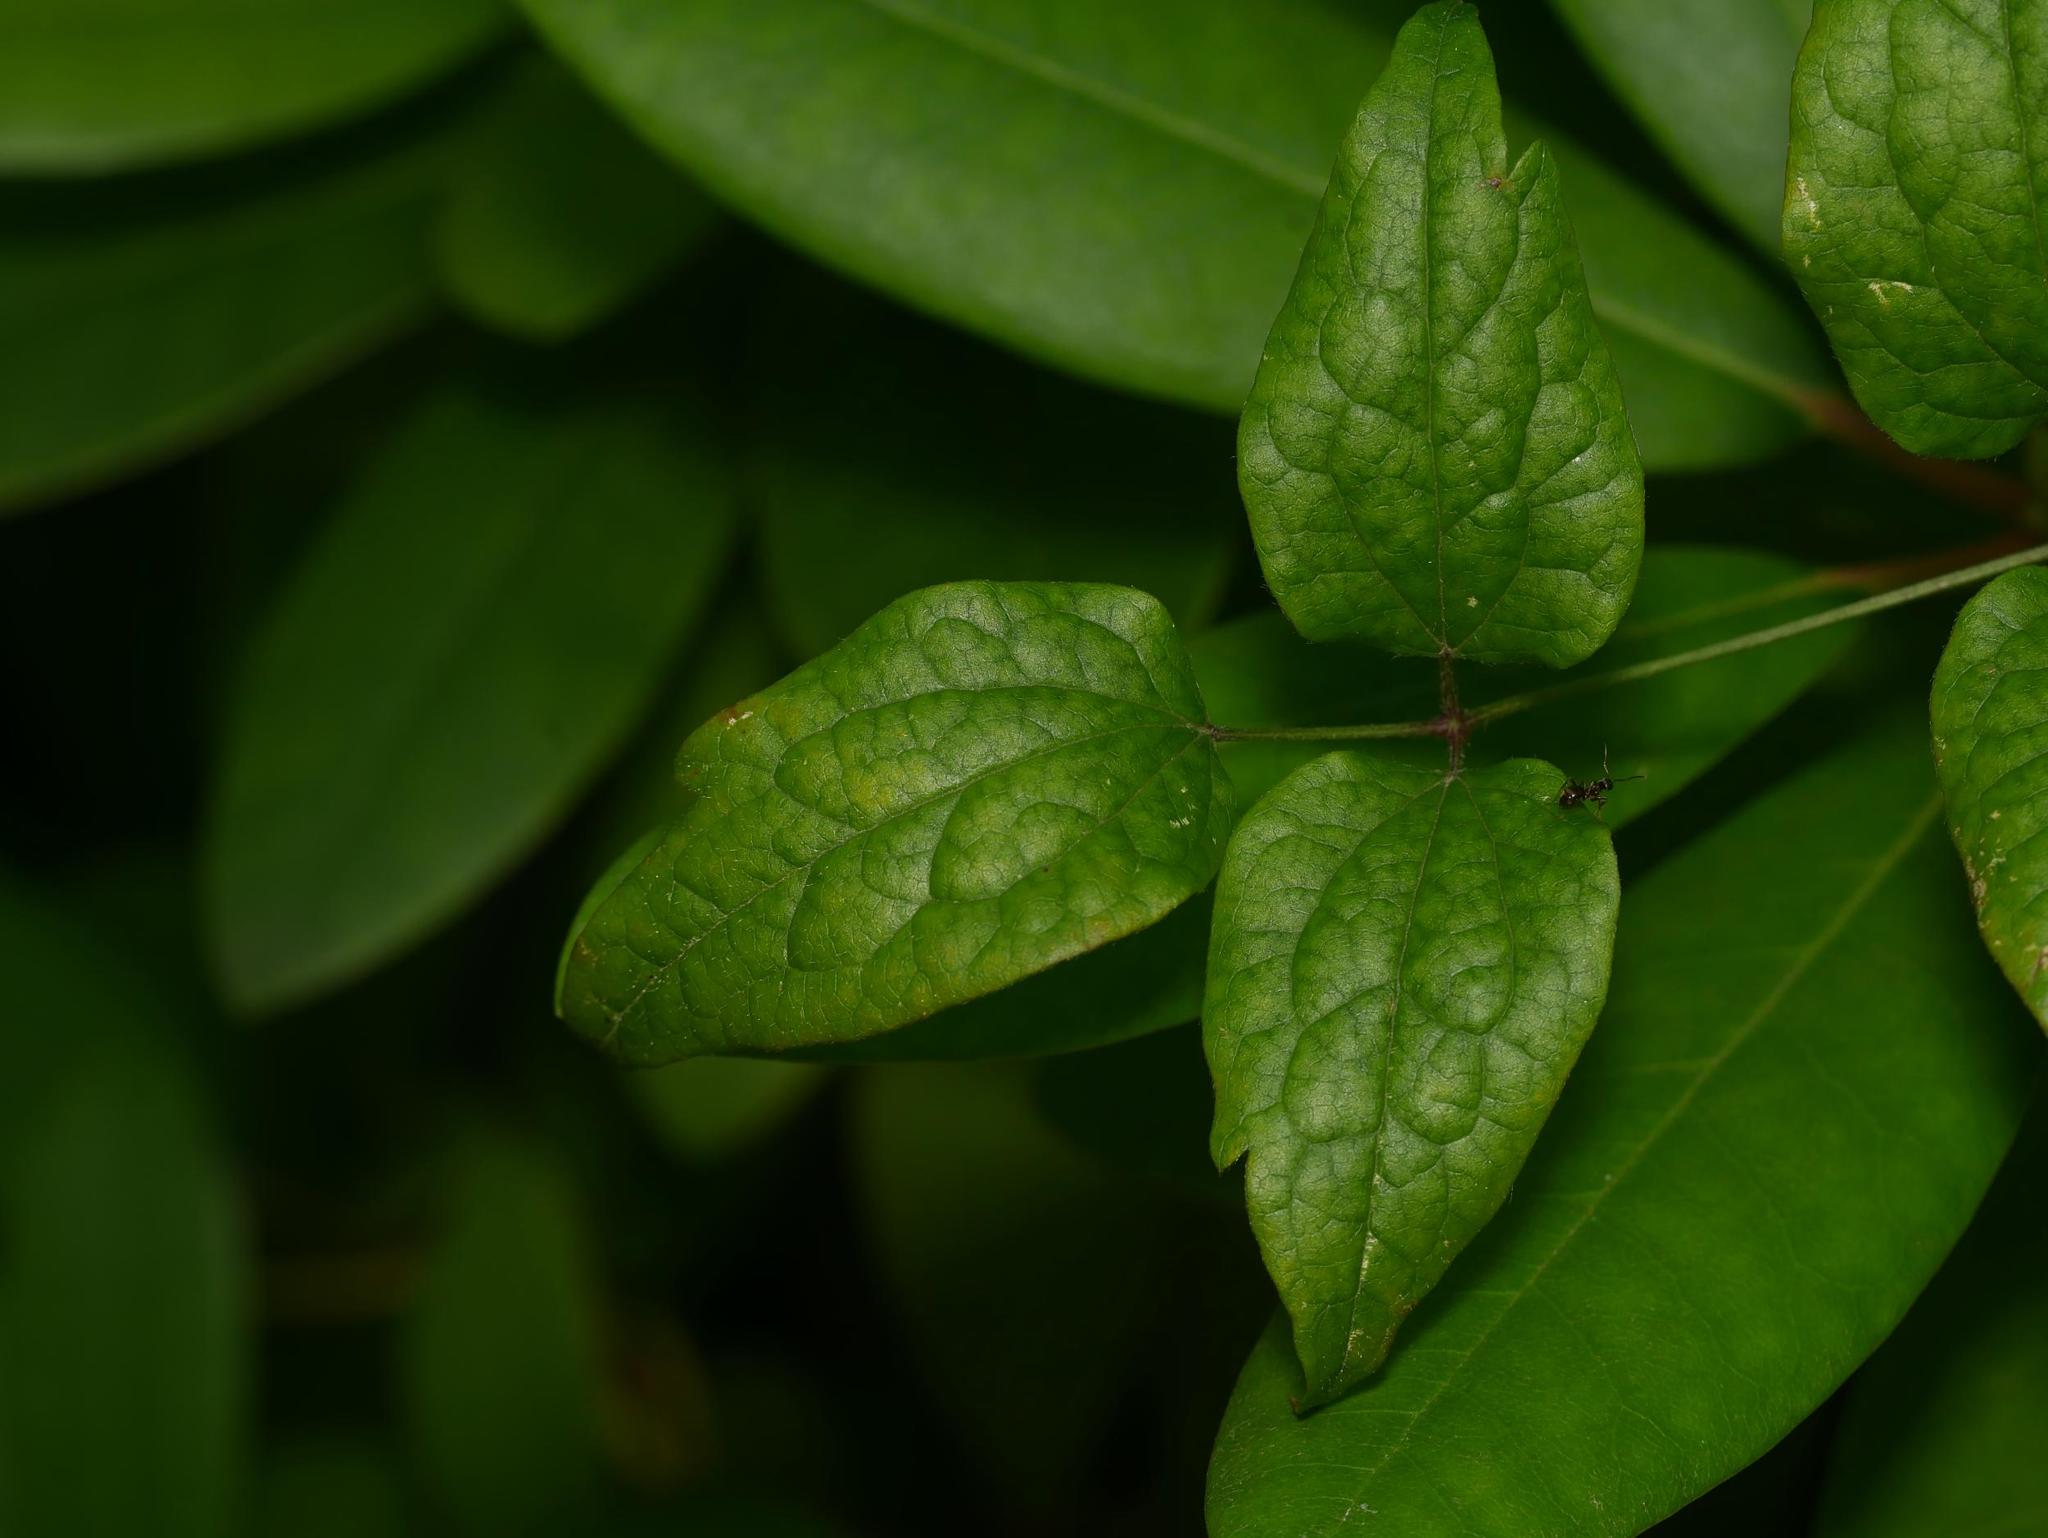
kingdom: Plantae
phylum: Tracheophyta
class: Magnoliopsida
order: Ranunculales
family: Ranunculaceae
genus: Clematis
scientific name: Clematis vitalba
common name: Evergreen clematis
